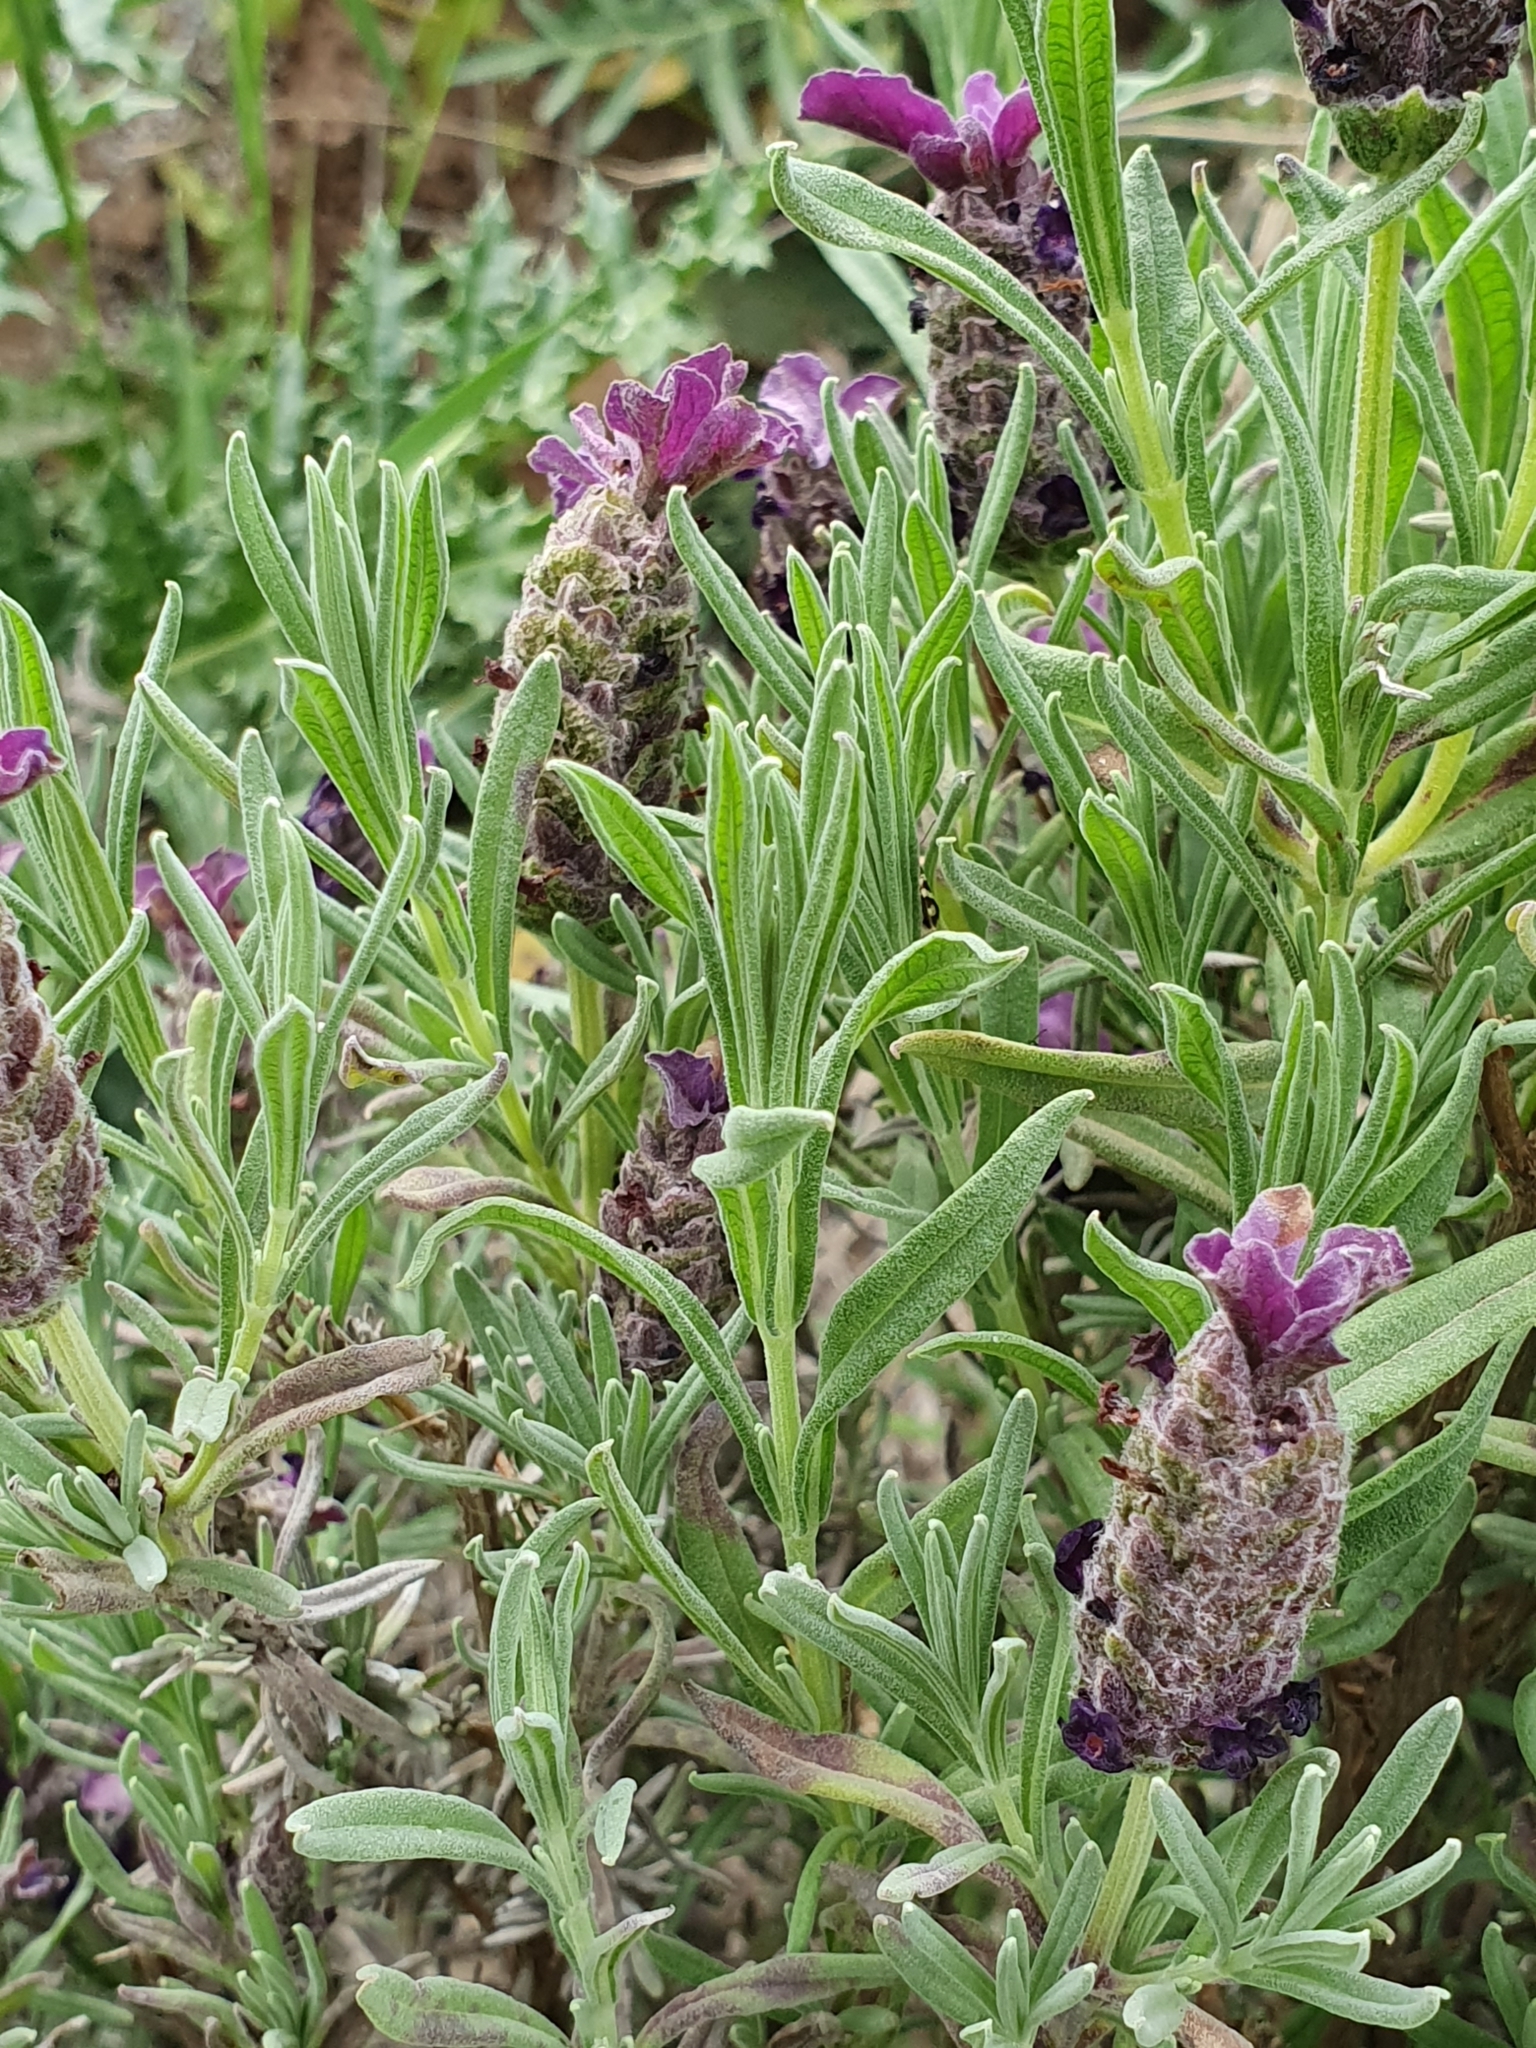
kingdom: Plantae
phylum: Tracheophyta
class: Magnoliopsida
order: Lamiales
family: Lamiaceae
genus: Lavandula
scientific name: Lavandula stoechas
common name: French lavender
